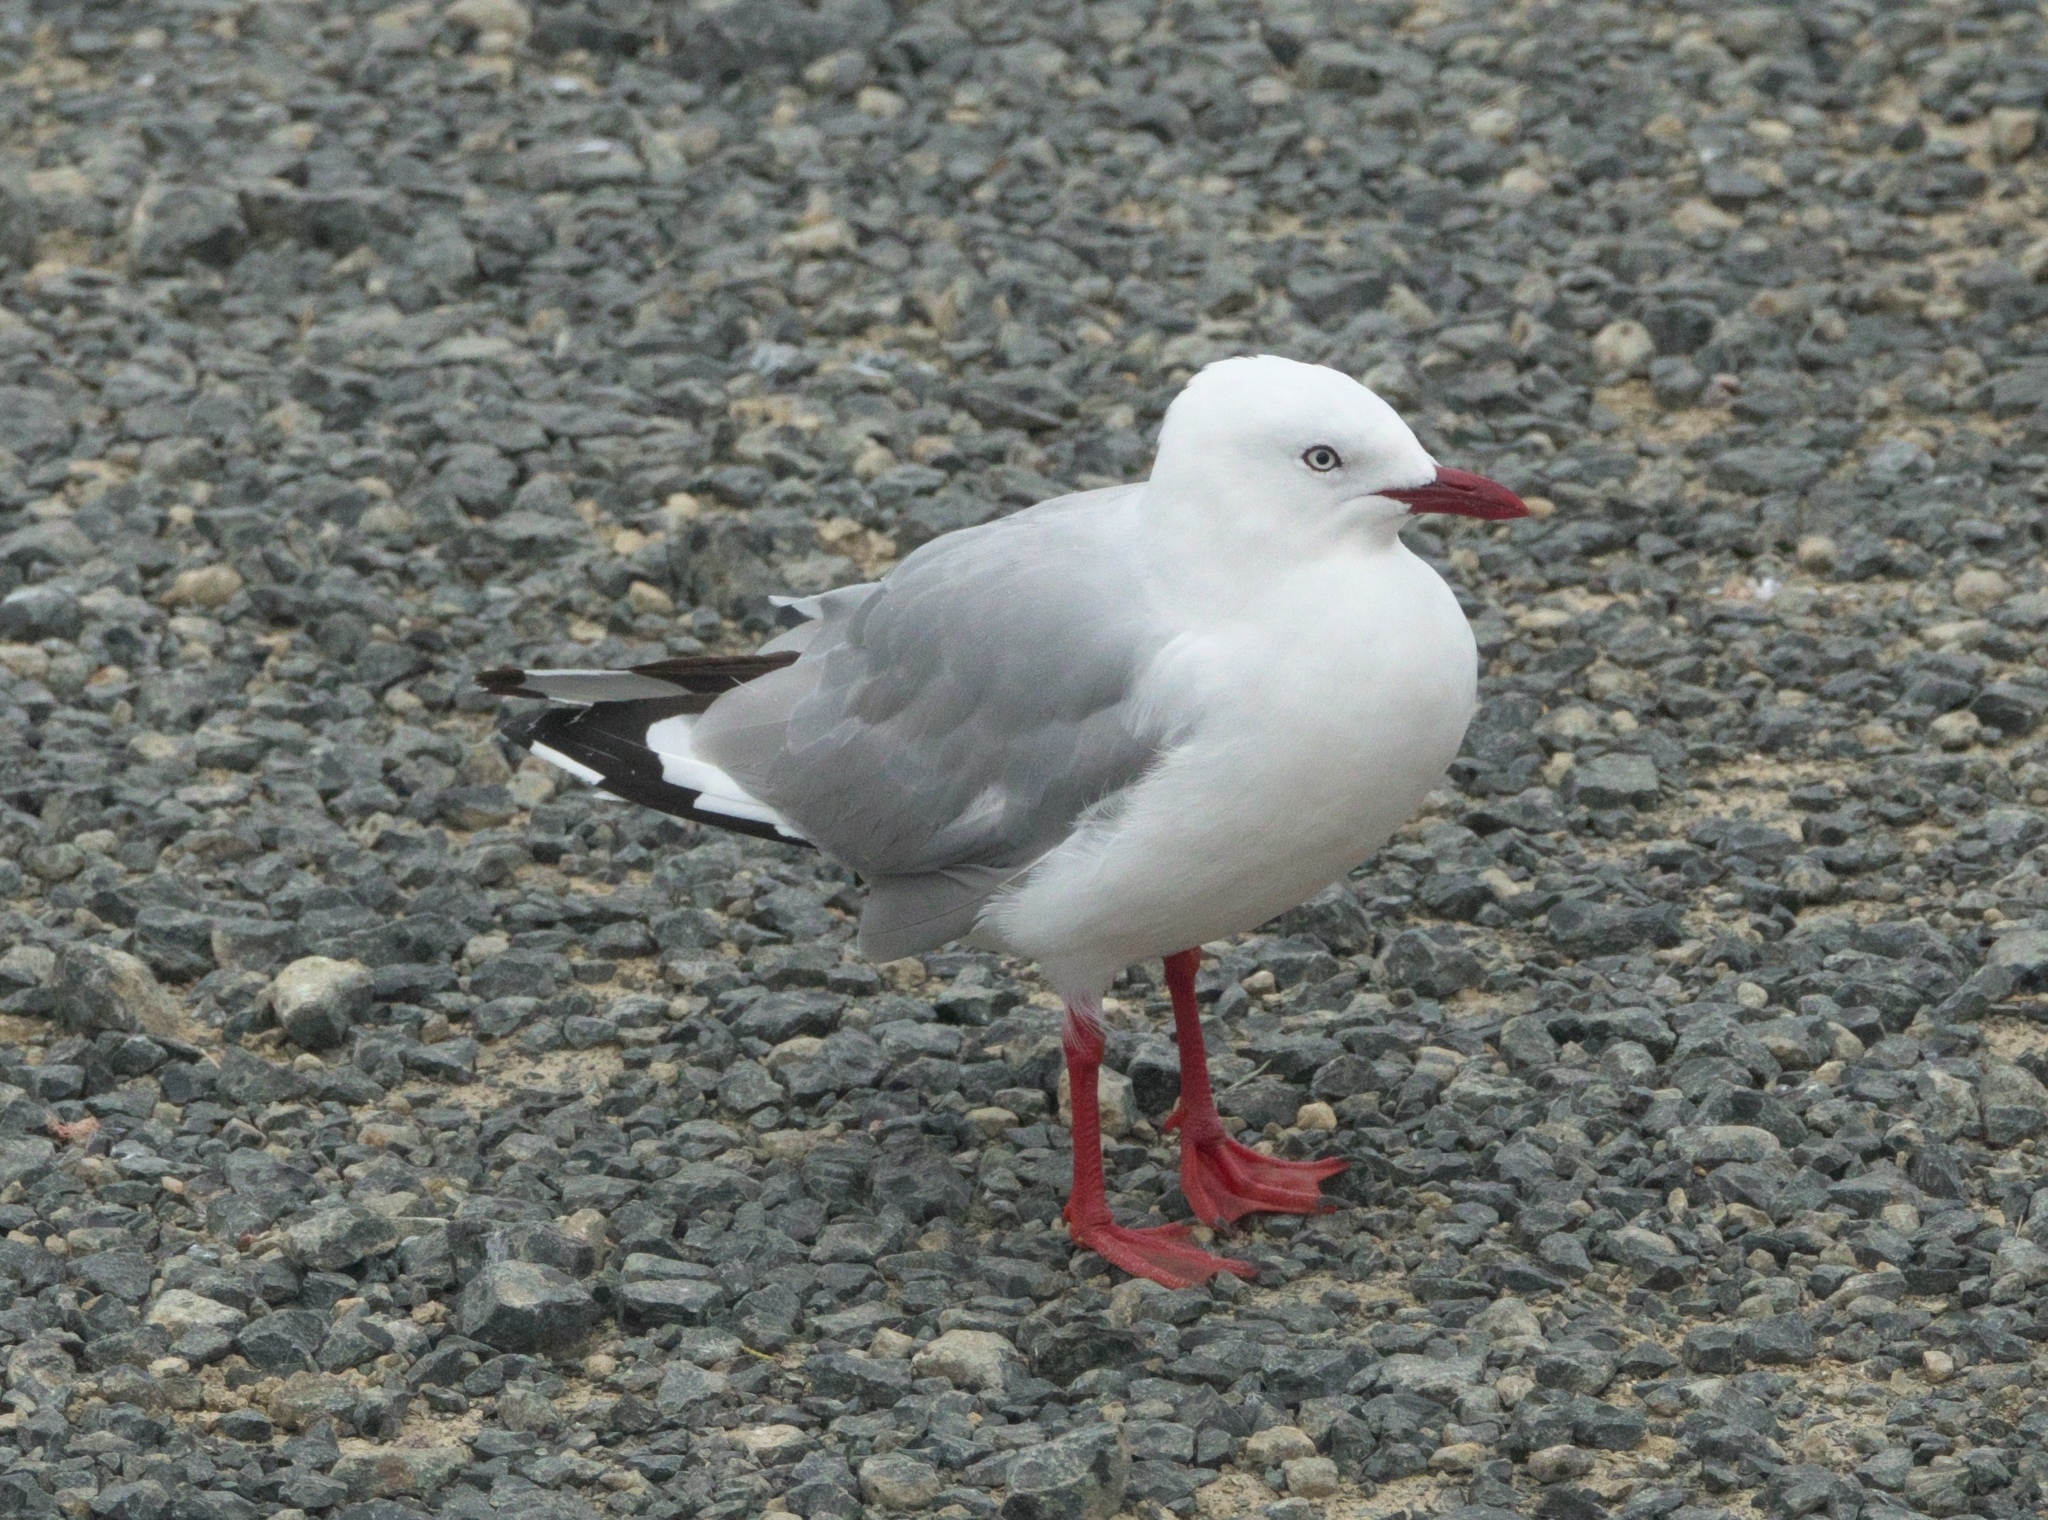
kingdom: Animalia
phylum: Chordata
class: Aves
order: Charadriiformes
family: Laridae
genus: Chroicocephalus
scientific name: Chroicocephalus novaehollandiae
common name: Silver gull
